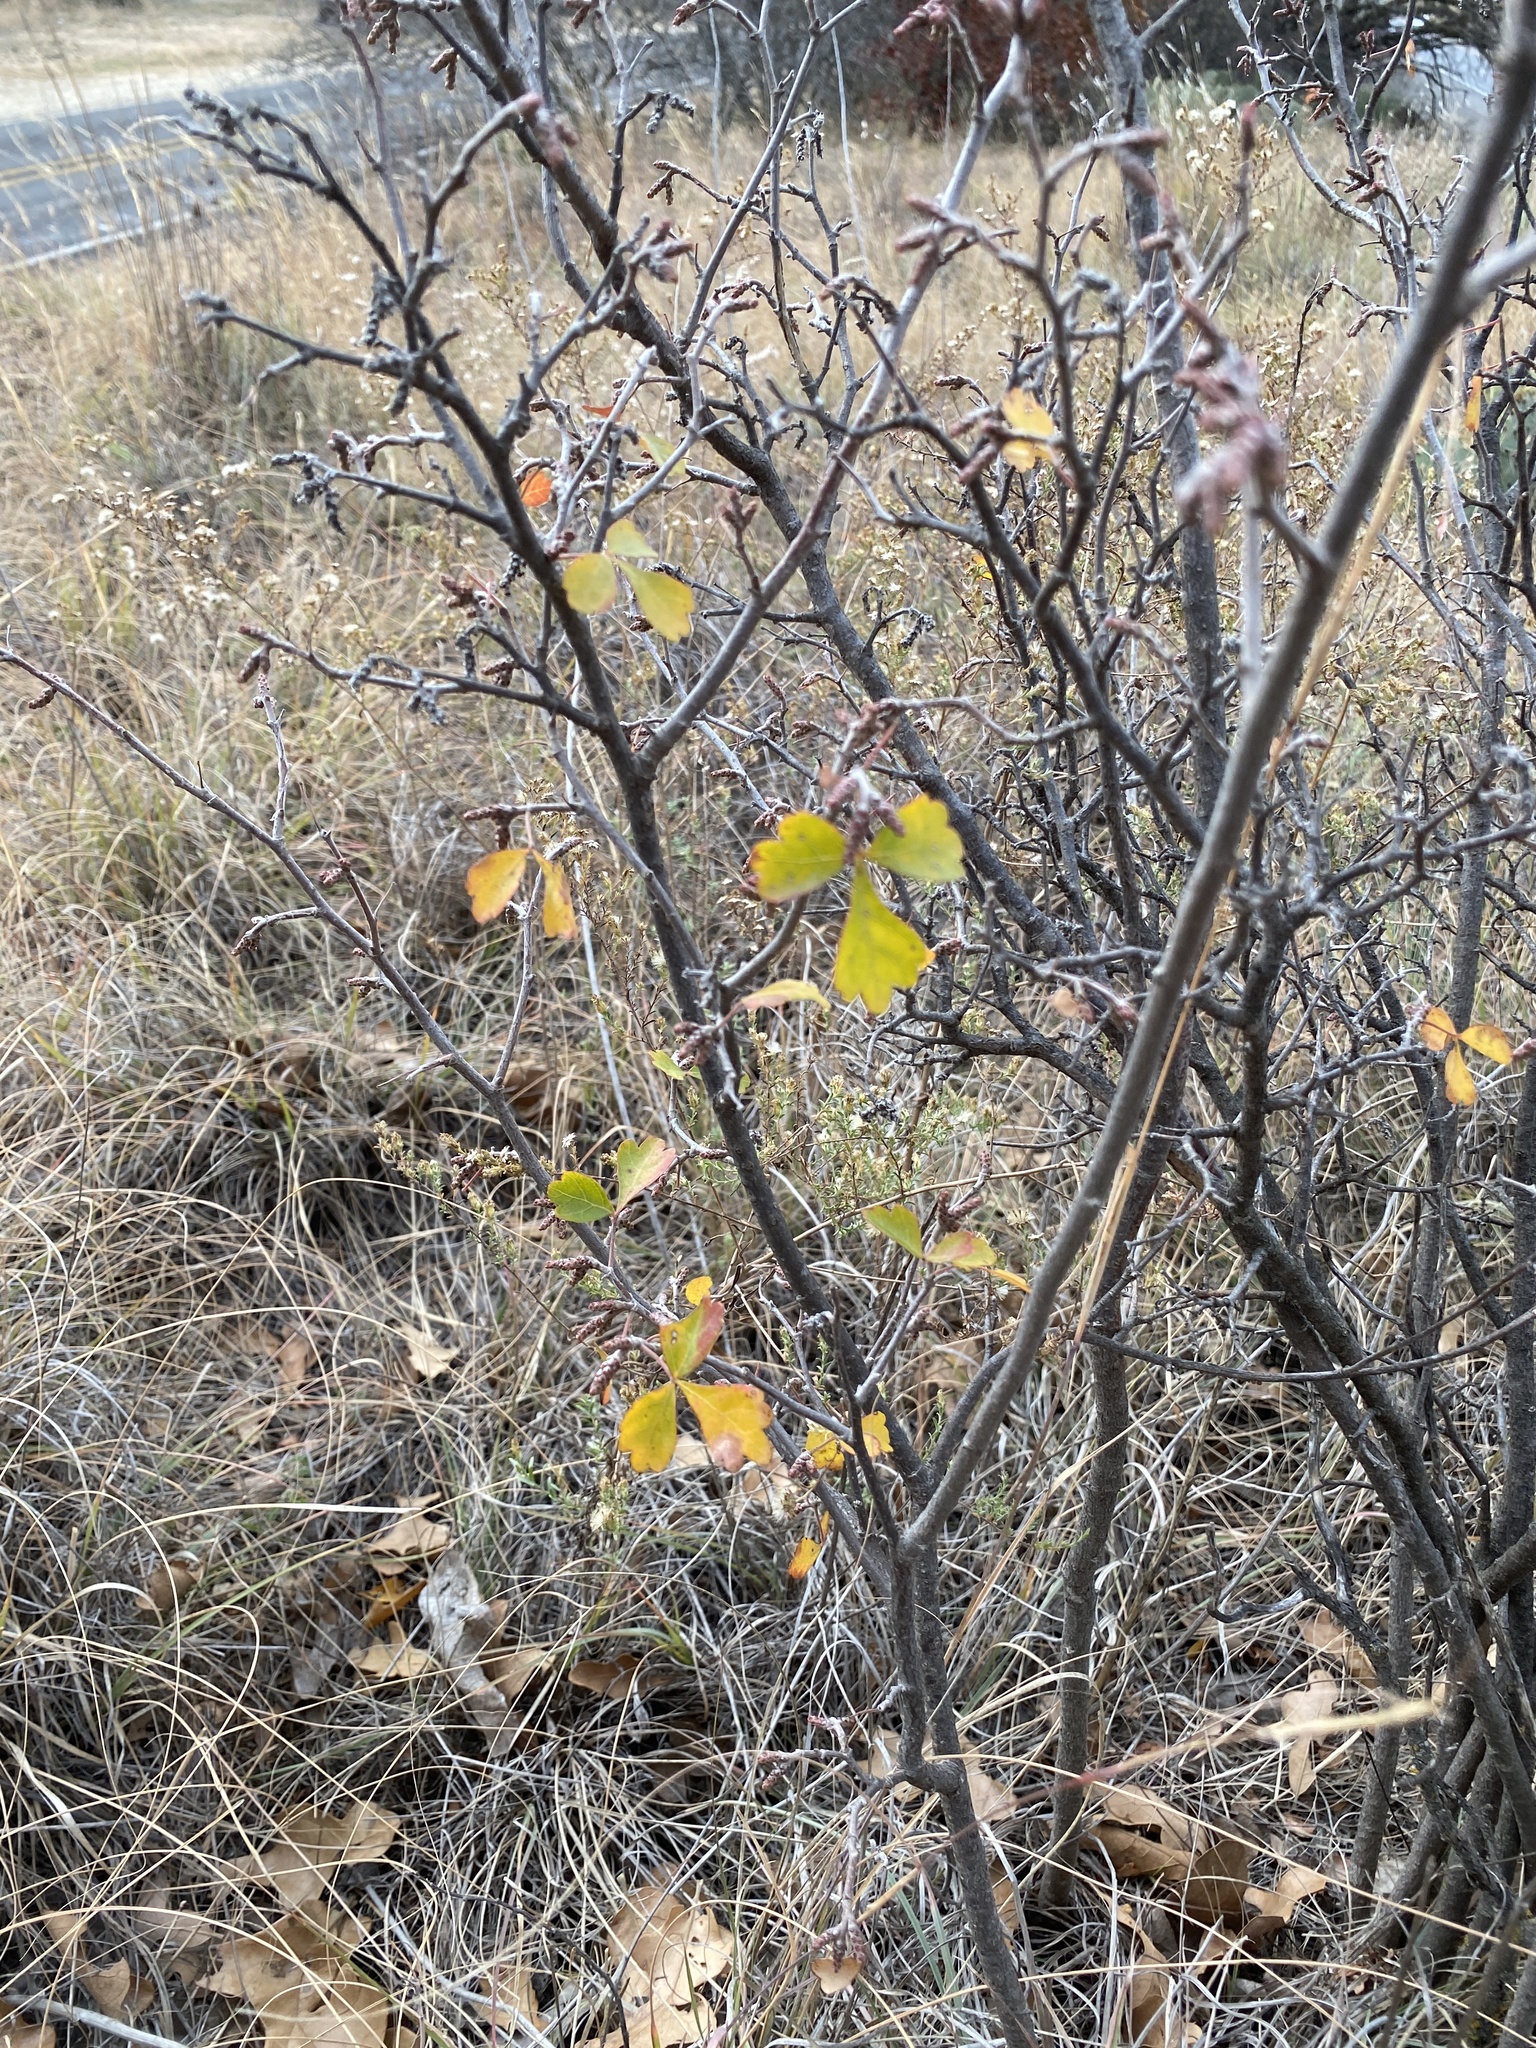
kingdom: Plantae
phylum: Tracheophyta
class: Magnoliopsida
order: Sapindales
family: Anacardiaceae
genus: Rhus
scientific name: Rhus aromatica
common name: Aromatic sumac
